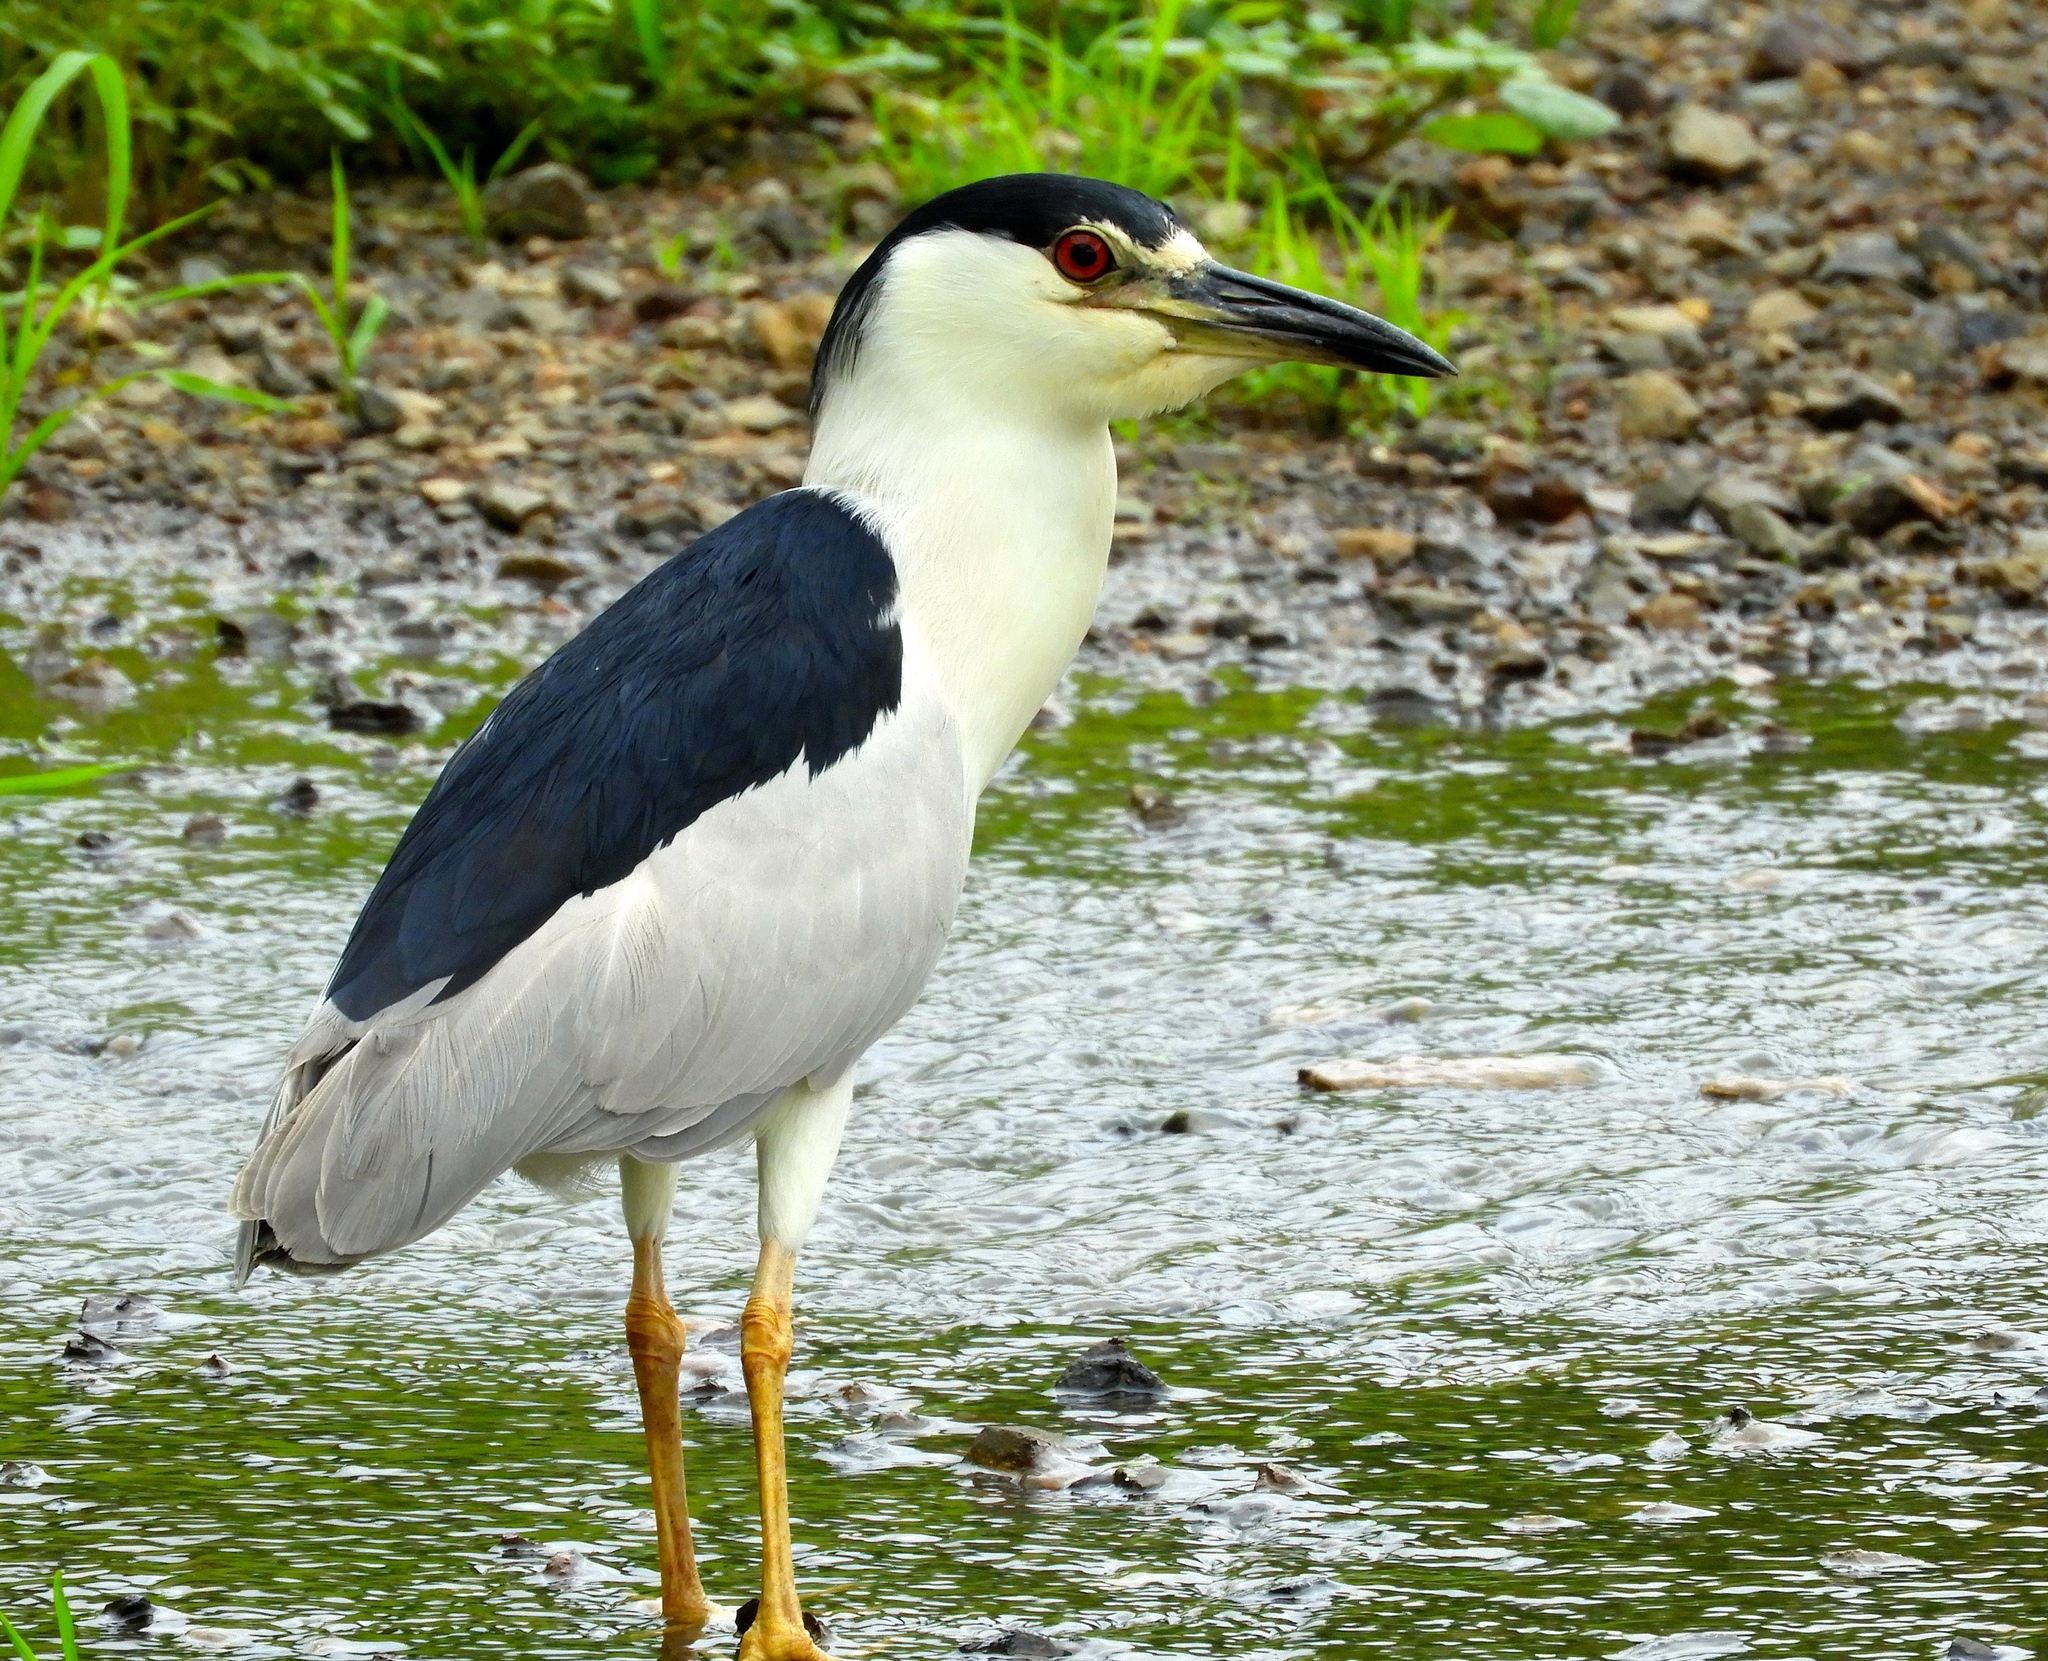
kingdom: Animalia
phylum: Chordata
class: Aves
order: Pelecaniformes
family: Ardeidae
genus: Nycticorax
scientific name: Nycticorax nycticorax
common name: Black-crowned night heron
